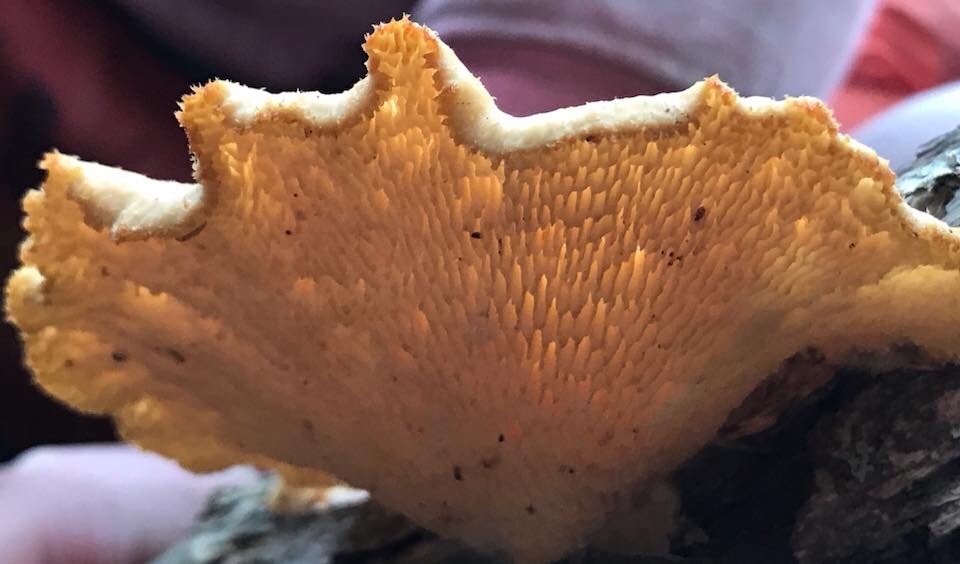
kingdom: Fungi
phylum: Basidiomycota
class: Agaricomycetes
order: Polyporales
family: Polyporaceae
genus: Neofavolus
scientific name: Neofavolus alveolaris
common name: Hexagonal-pored polypore
